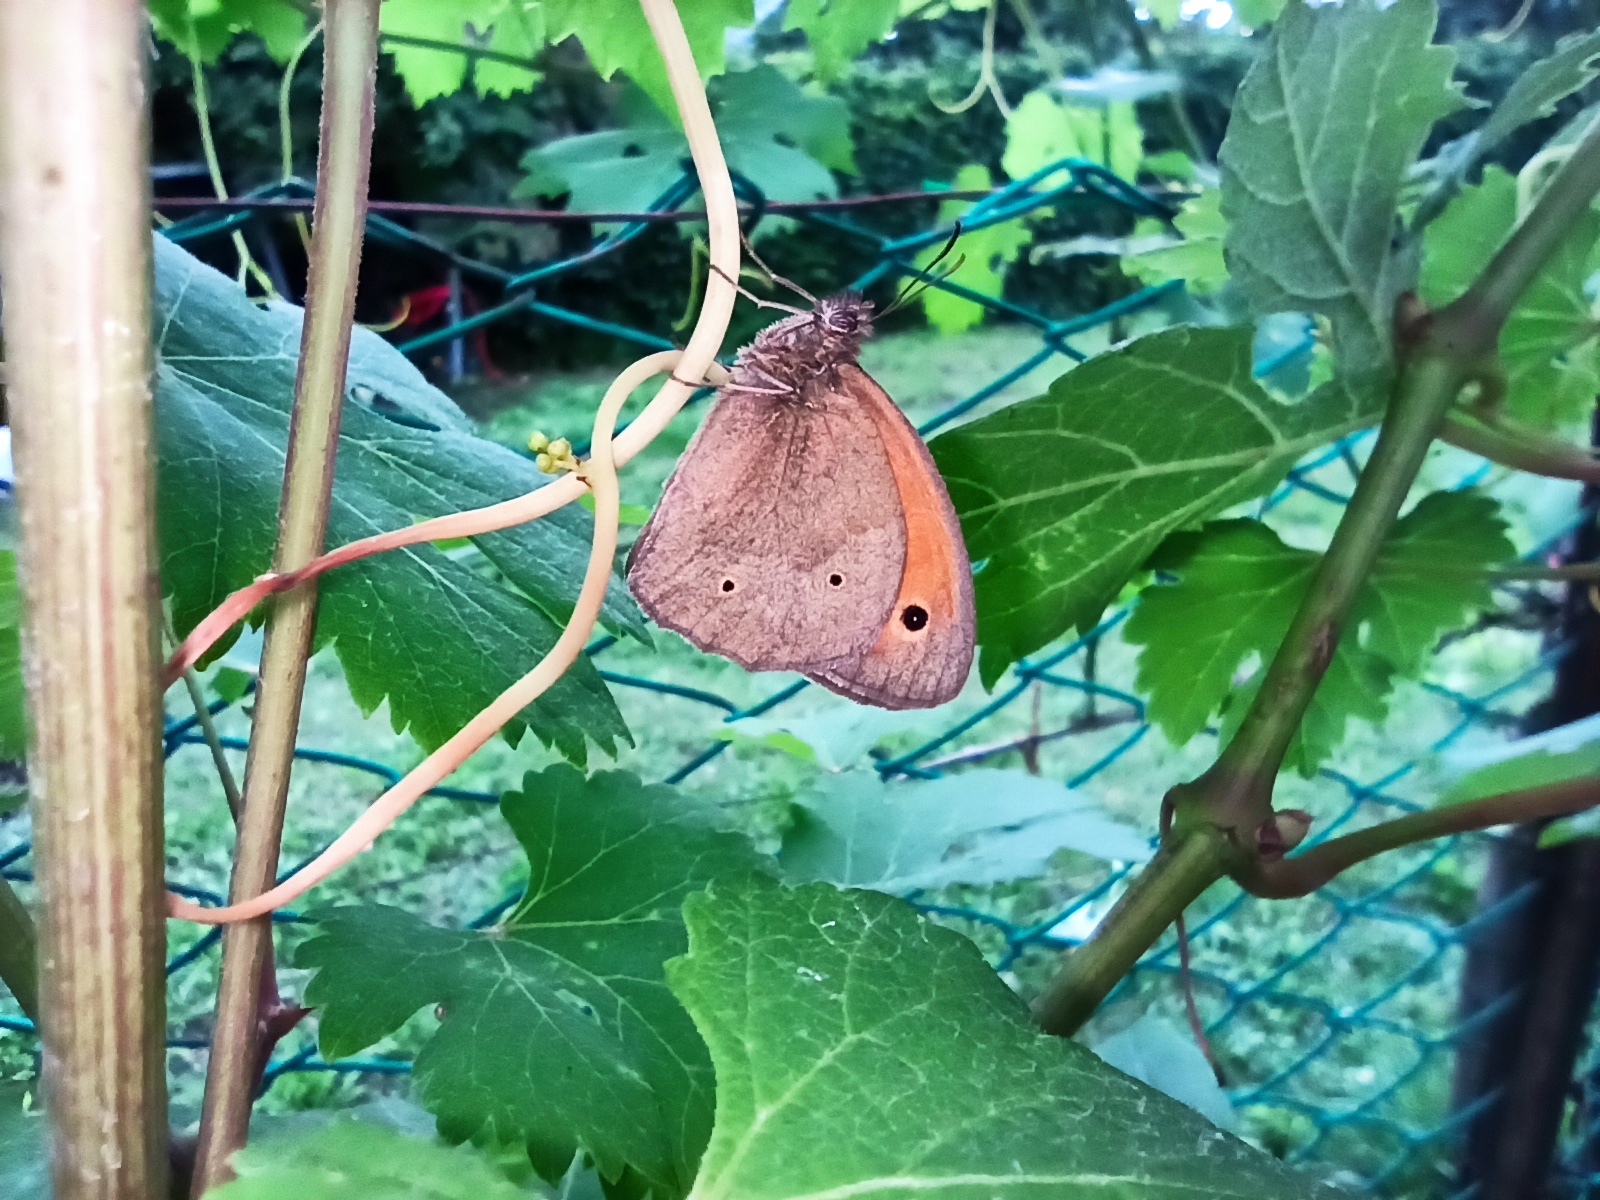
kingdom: Animalia
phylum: Arthropoda
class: Insecta
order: Lepidoptera
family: Nymphalidae
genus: Maniola
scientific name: Maniola jurtina
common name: Meadow brown
